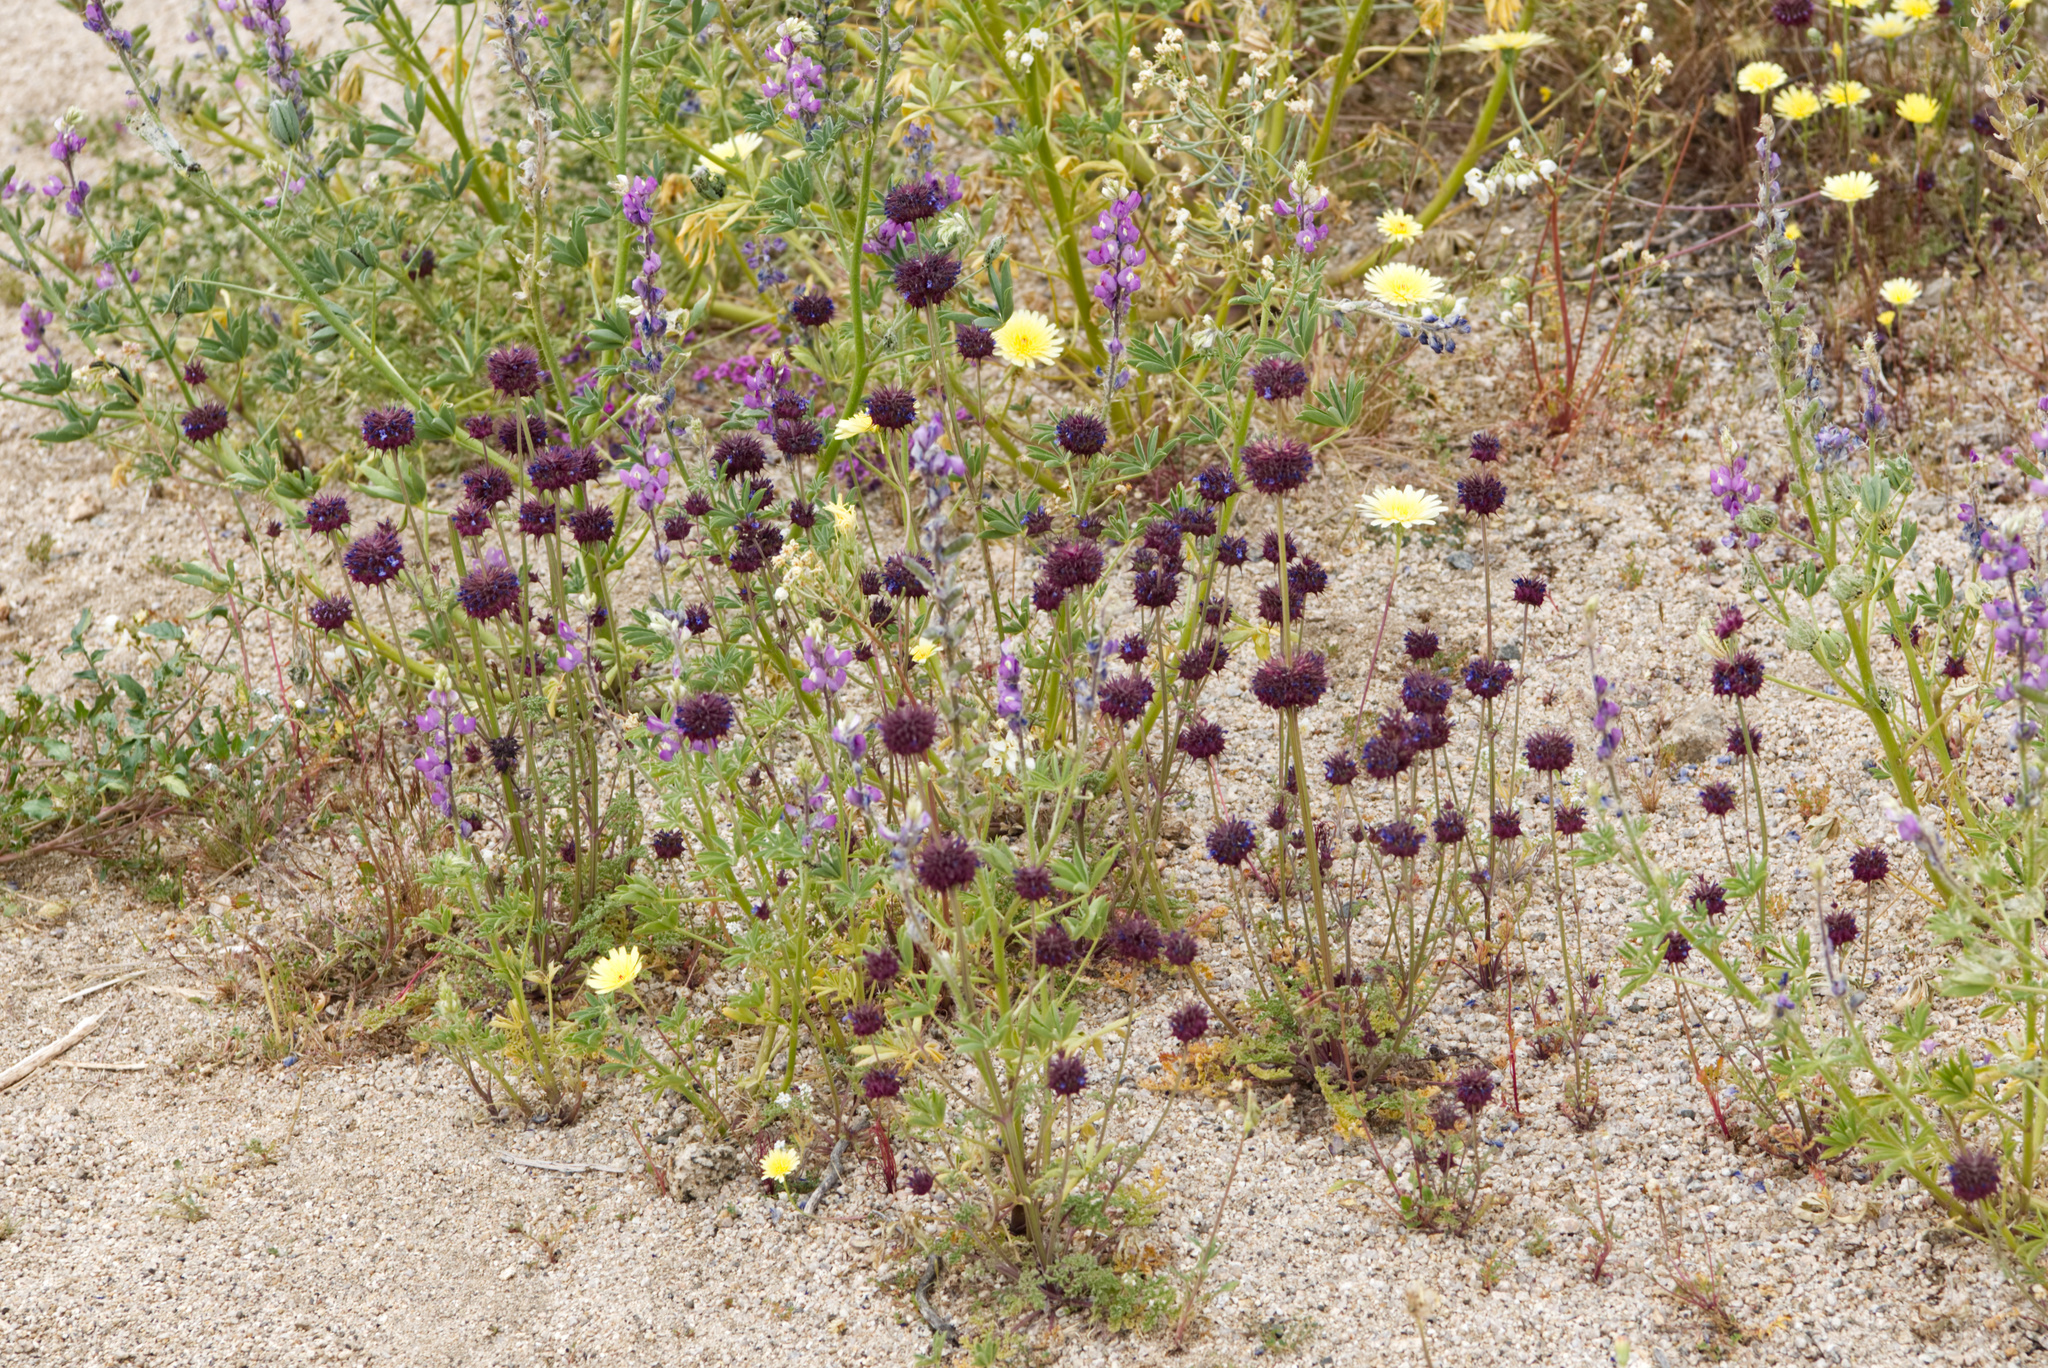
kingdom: Plantae
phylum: Tracheophyta
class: Magnoliopsida
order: Lamiales
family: Lamiaceae
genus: Salvia
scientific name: Salvia columbariae
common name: Chia
